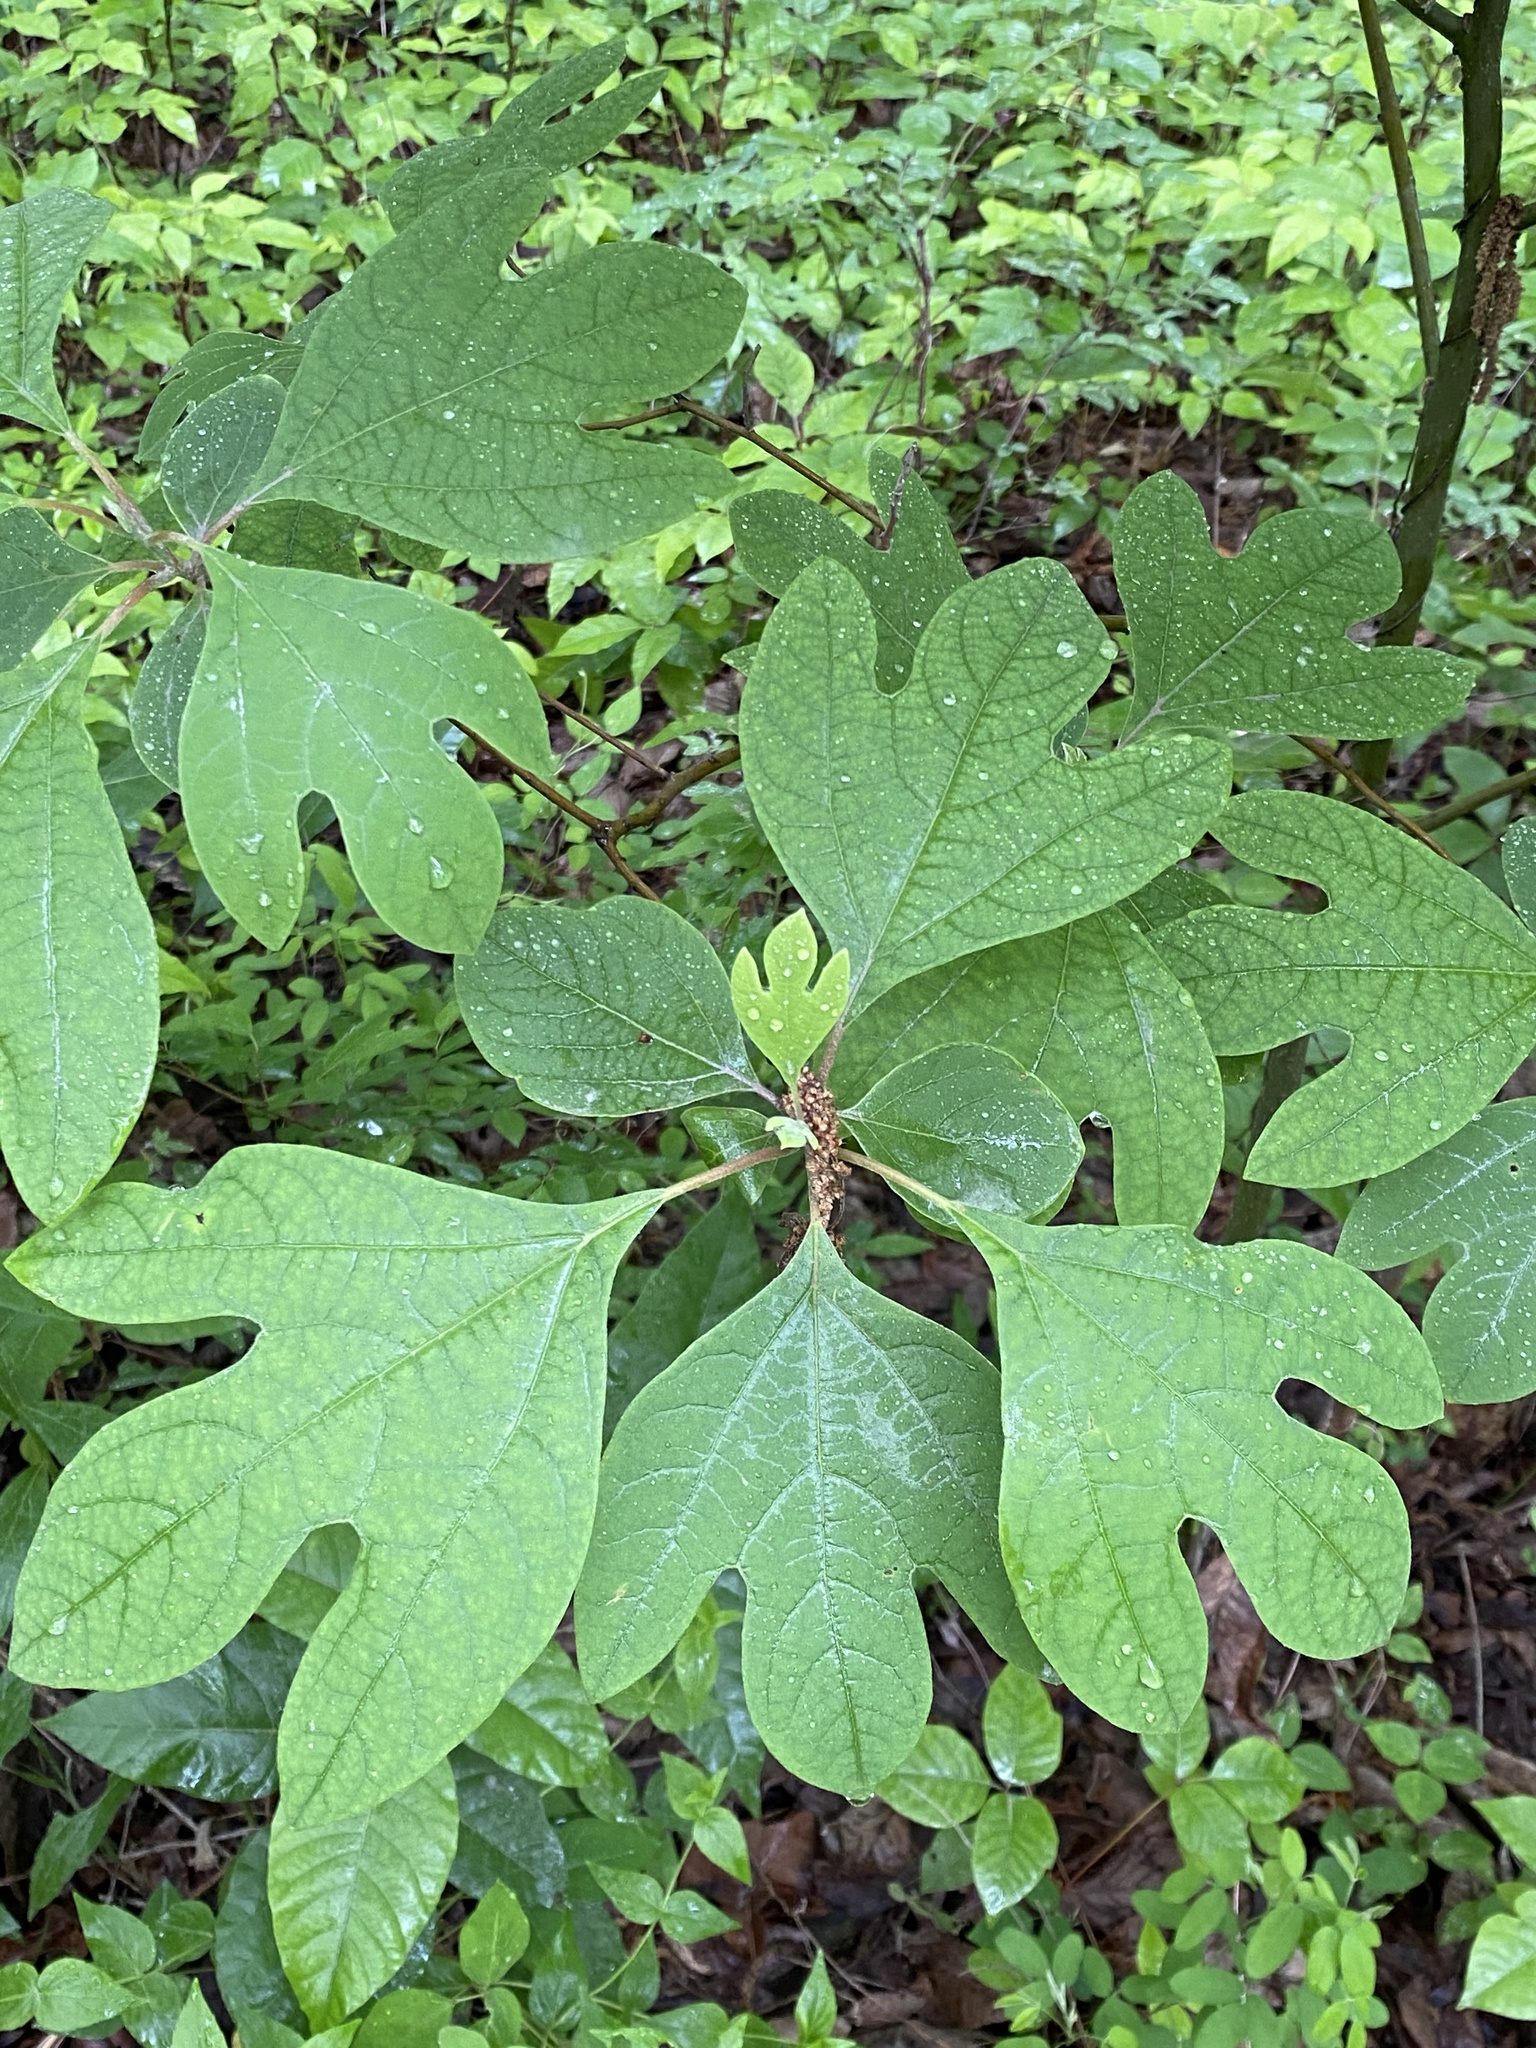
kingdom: Plantae
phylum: Tracheophyta
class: Magnoliopsida
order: Laurales
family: Lauraceae
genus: Sassafras
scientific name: Sassafras albidum
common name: Sassafras
